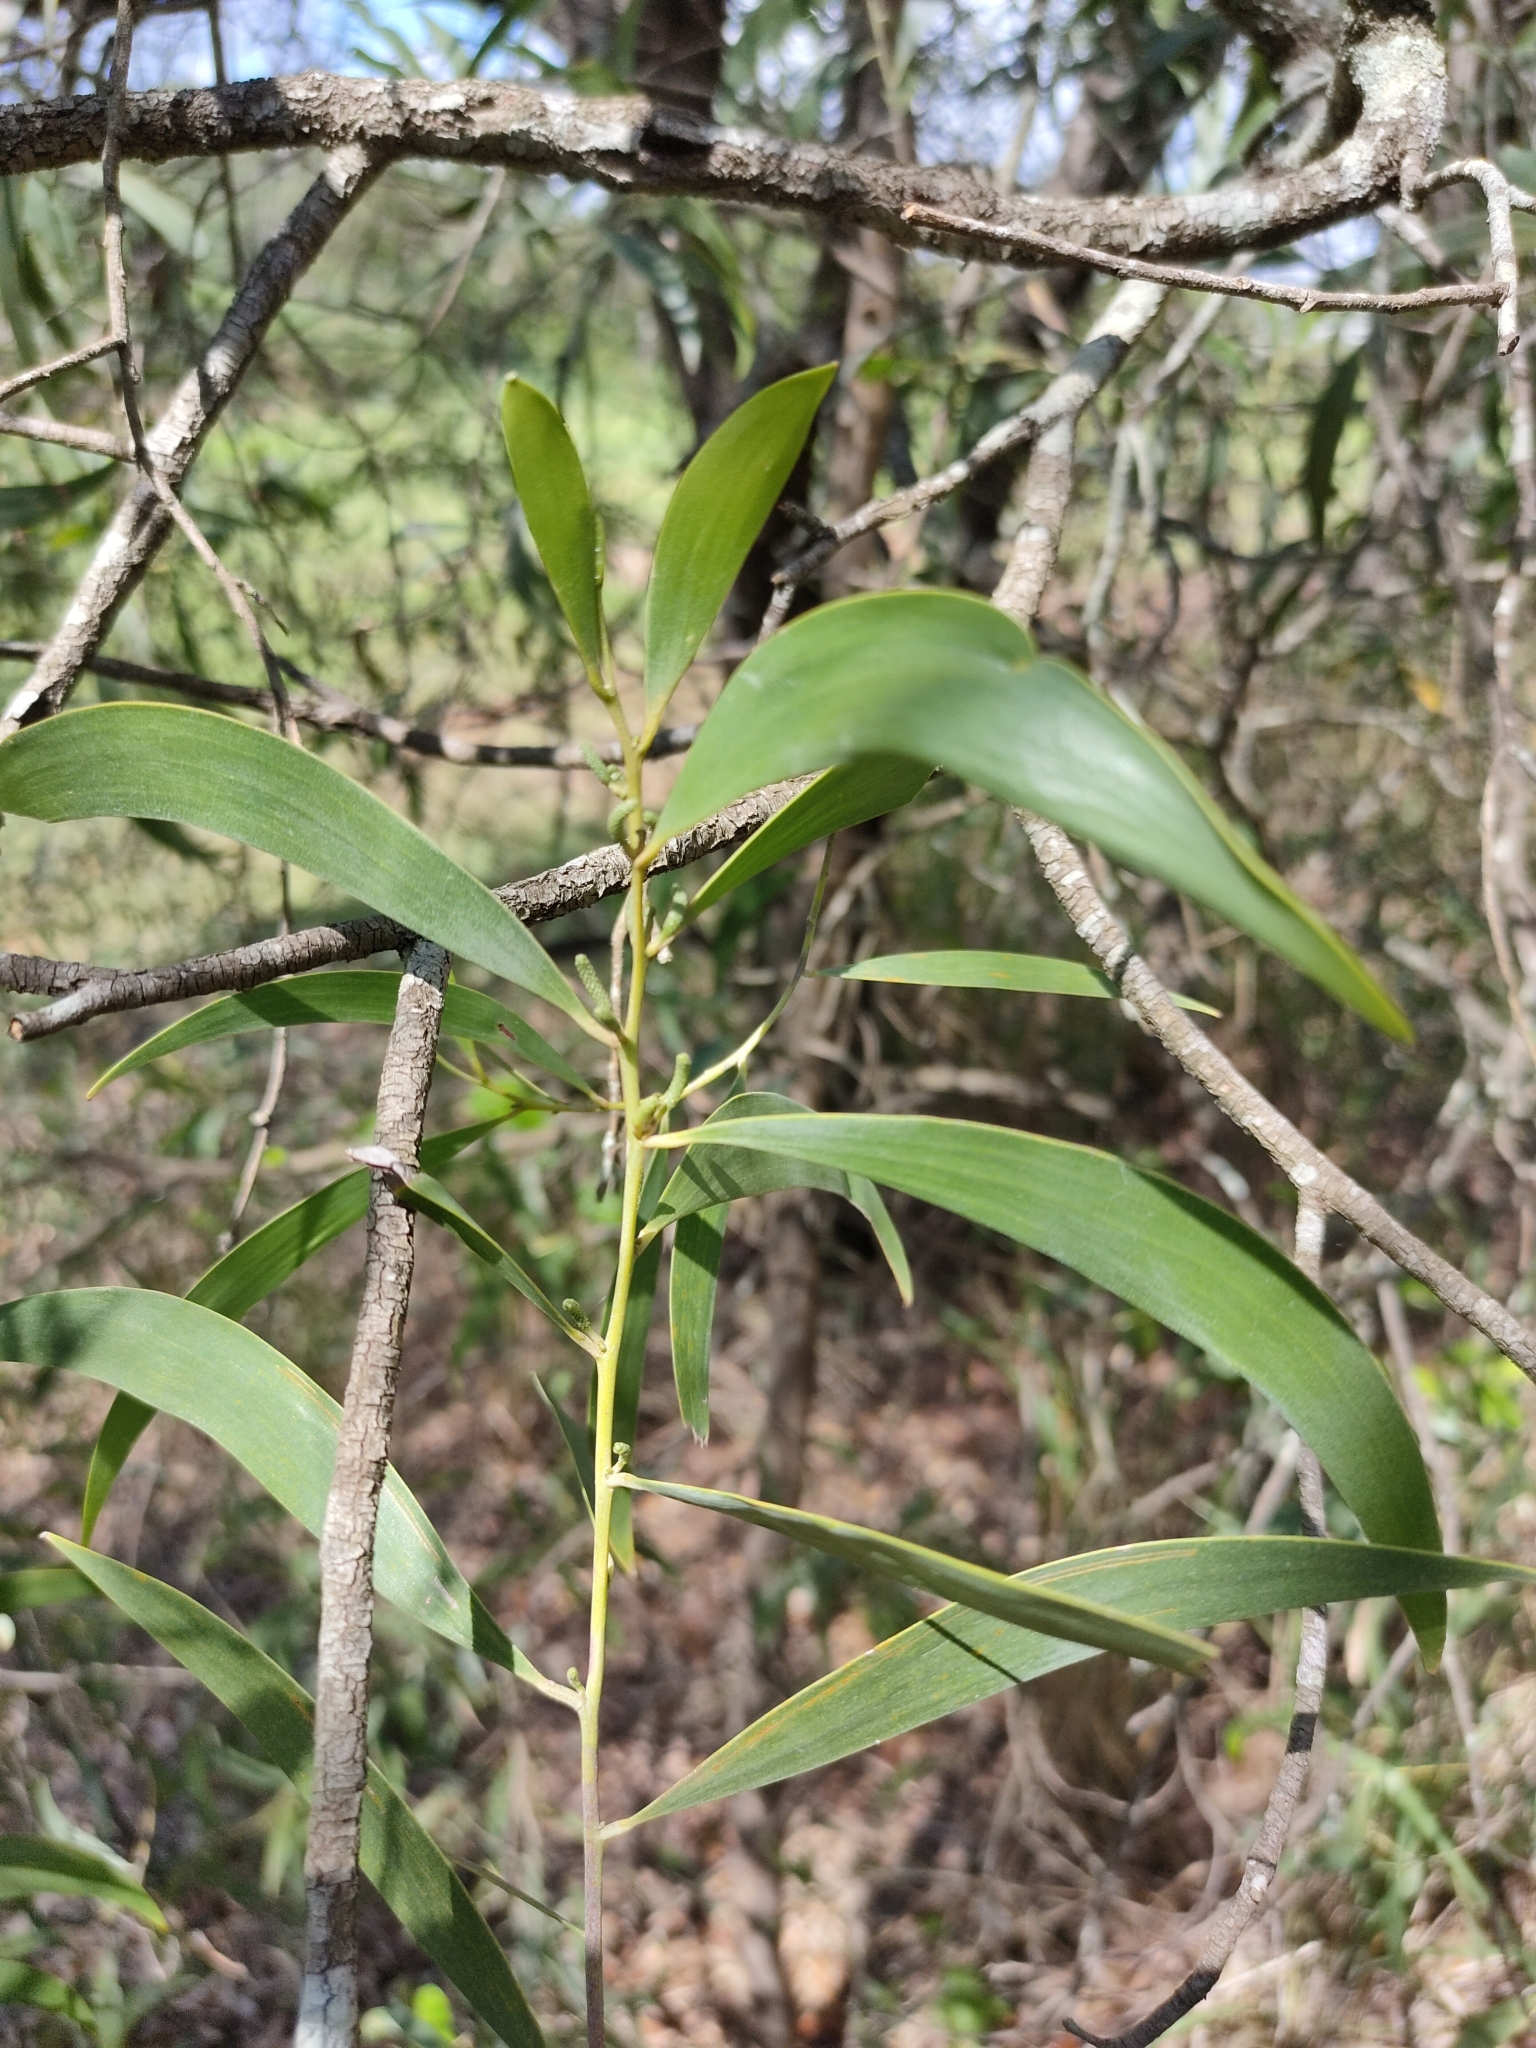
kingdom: Plantae
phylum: Tracheophyta
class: Magnoliopsida
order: Fabales
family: Fabaceae
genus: Acacia
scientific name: Acacia disparrima
